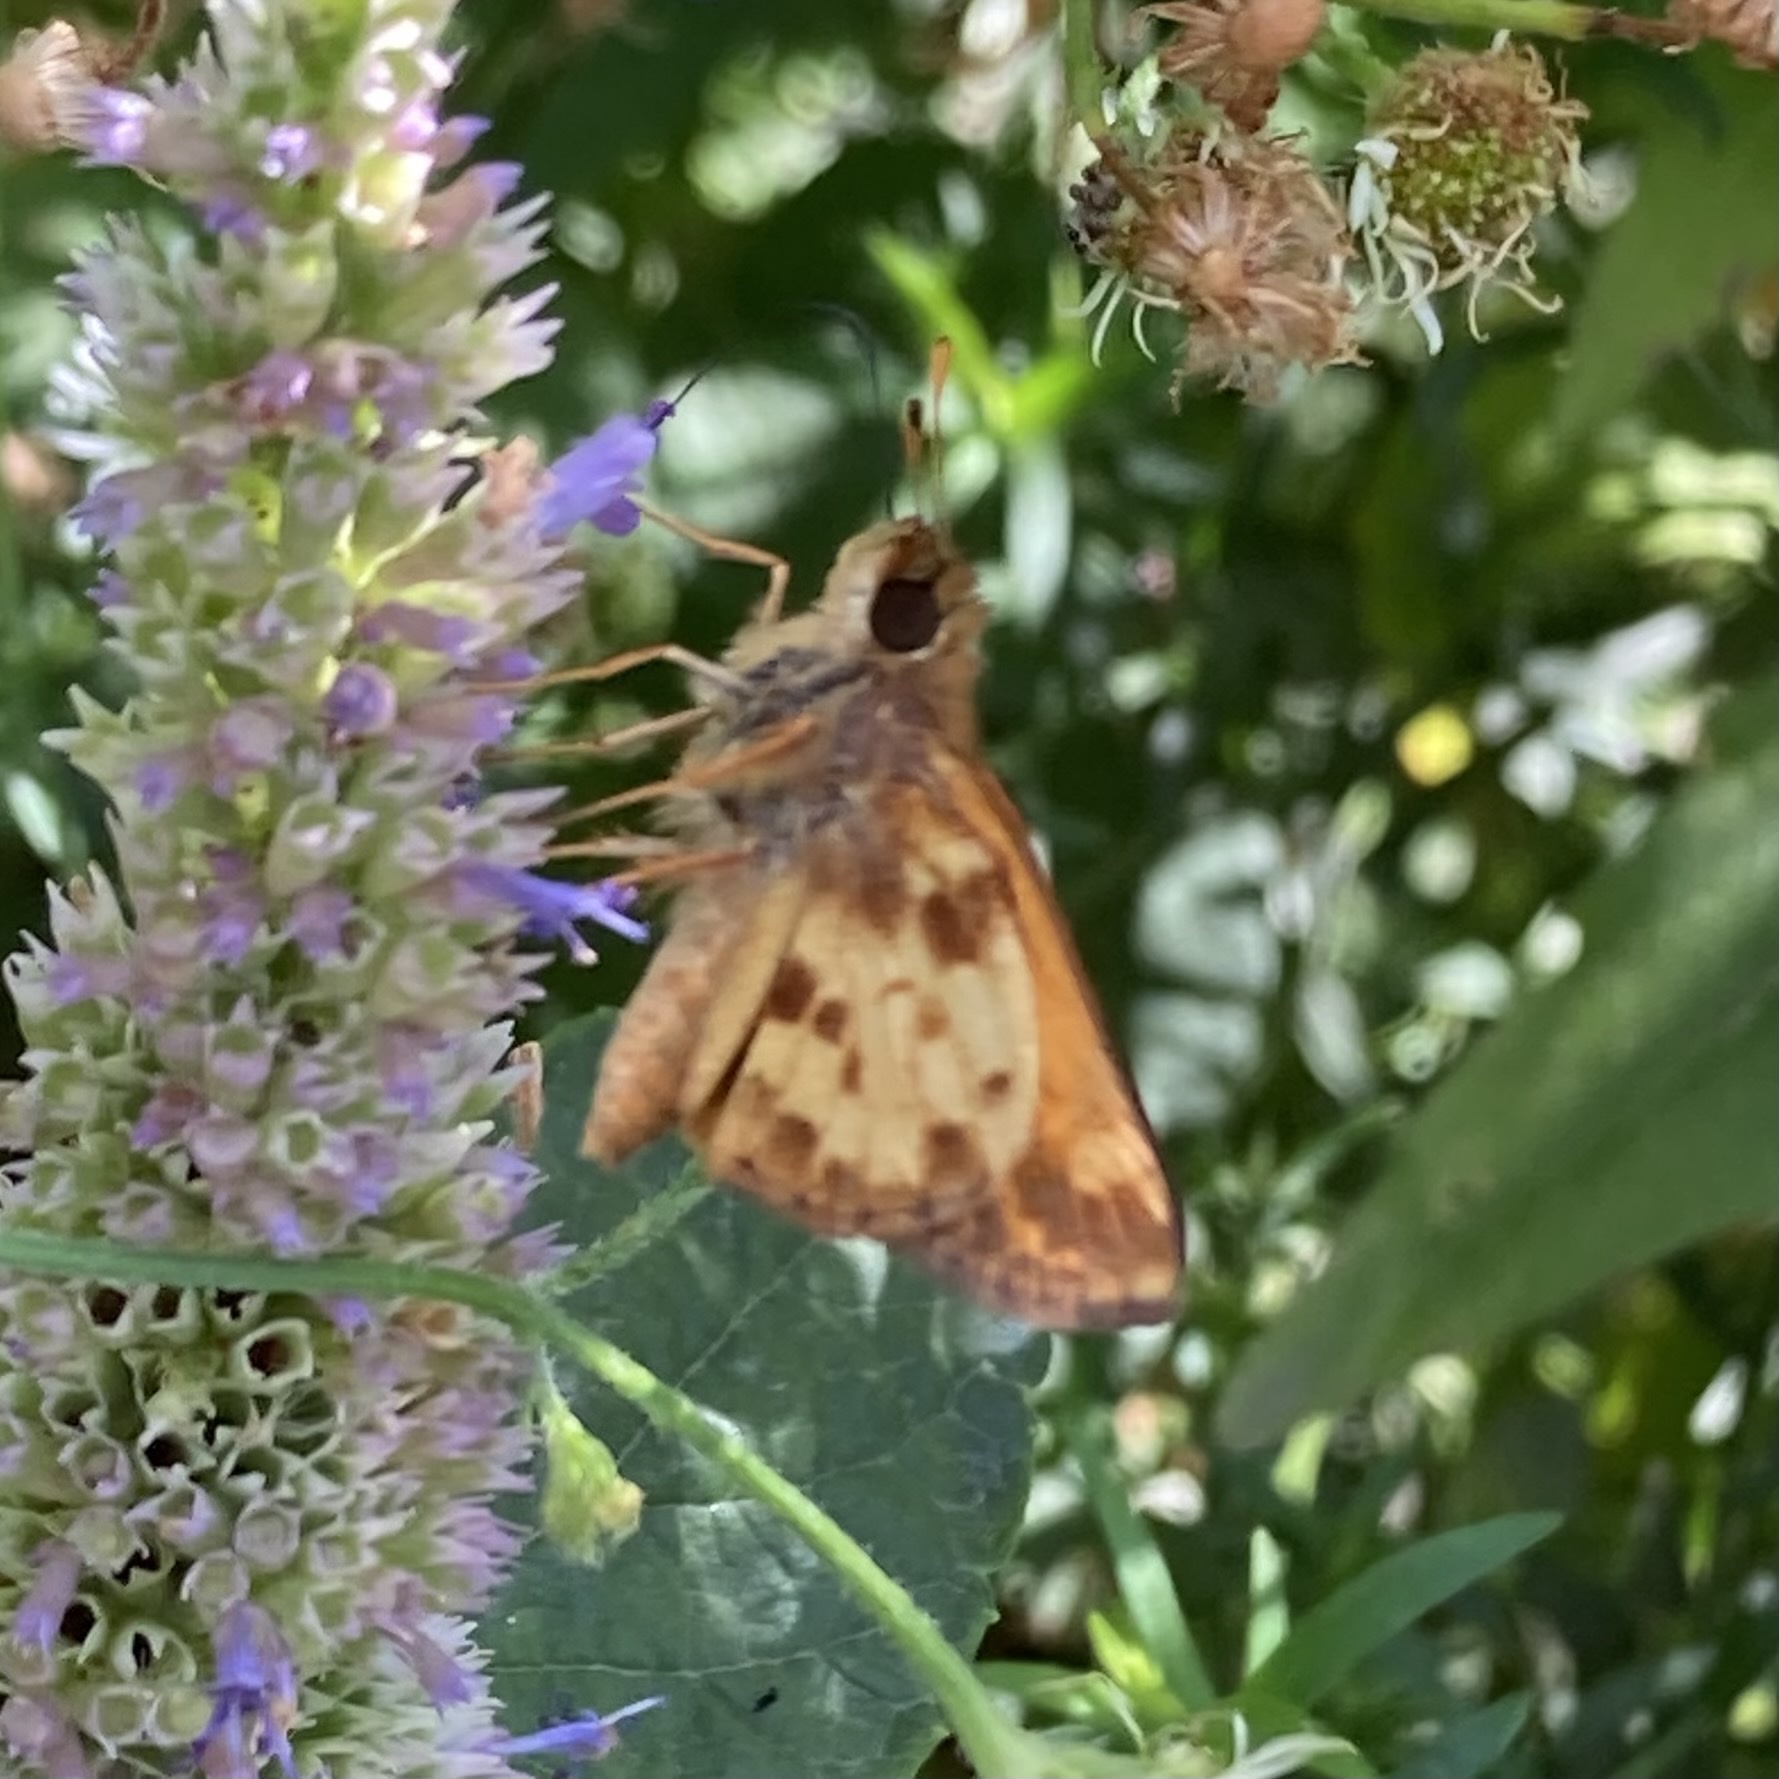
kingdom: Animalia
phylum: Arthropoda
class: Insecta
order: Lepidoptera
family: Hesperiidae
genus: Lon
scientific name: Lon zabulon
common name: Zabulon skipper
